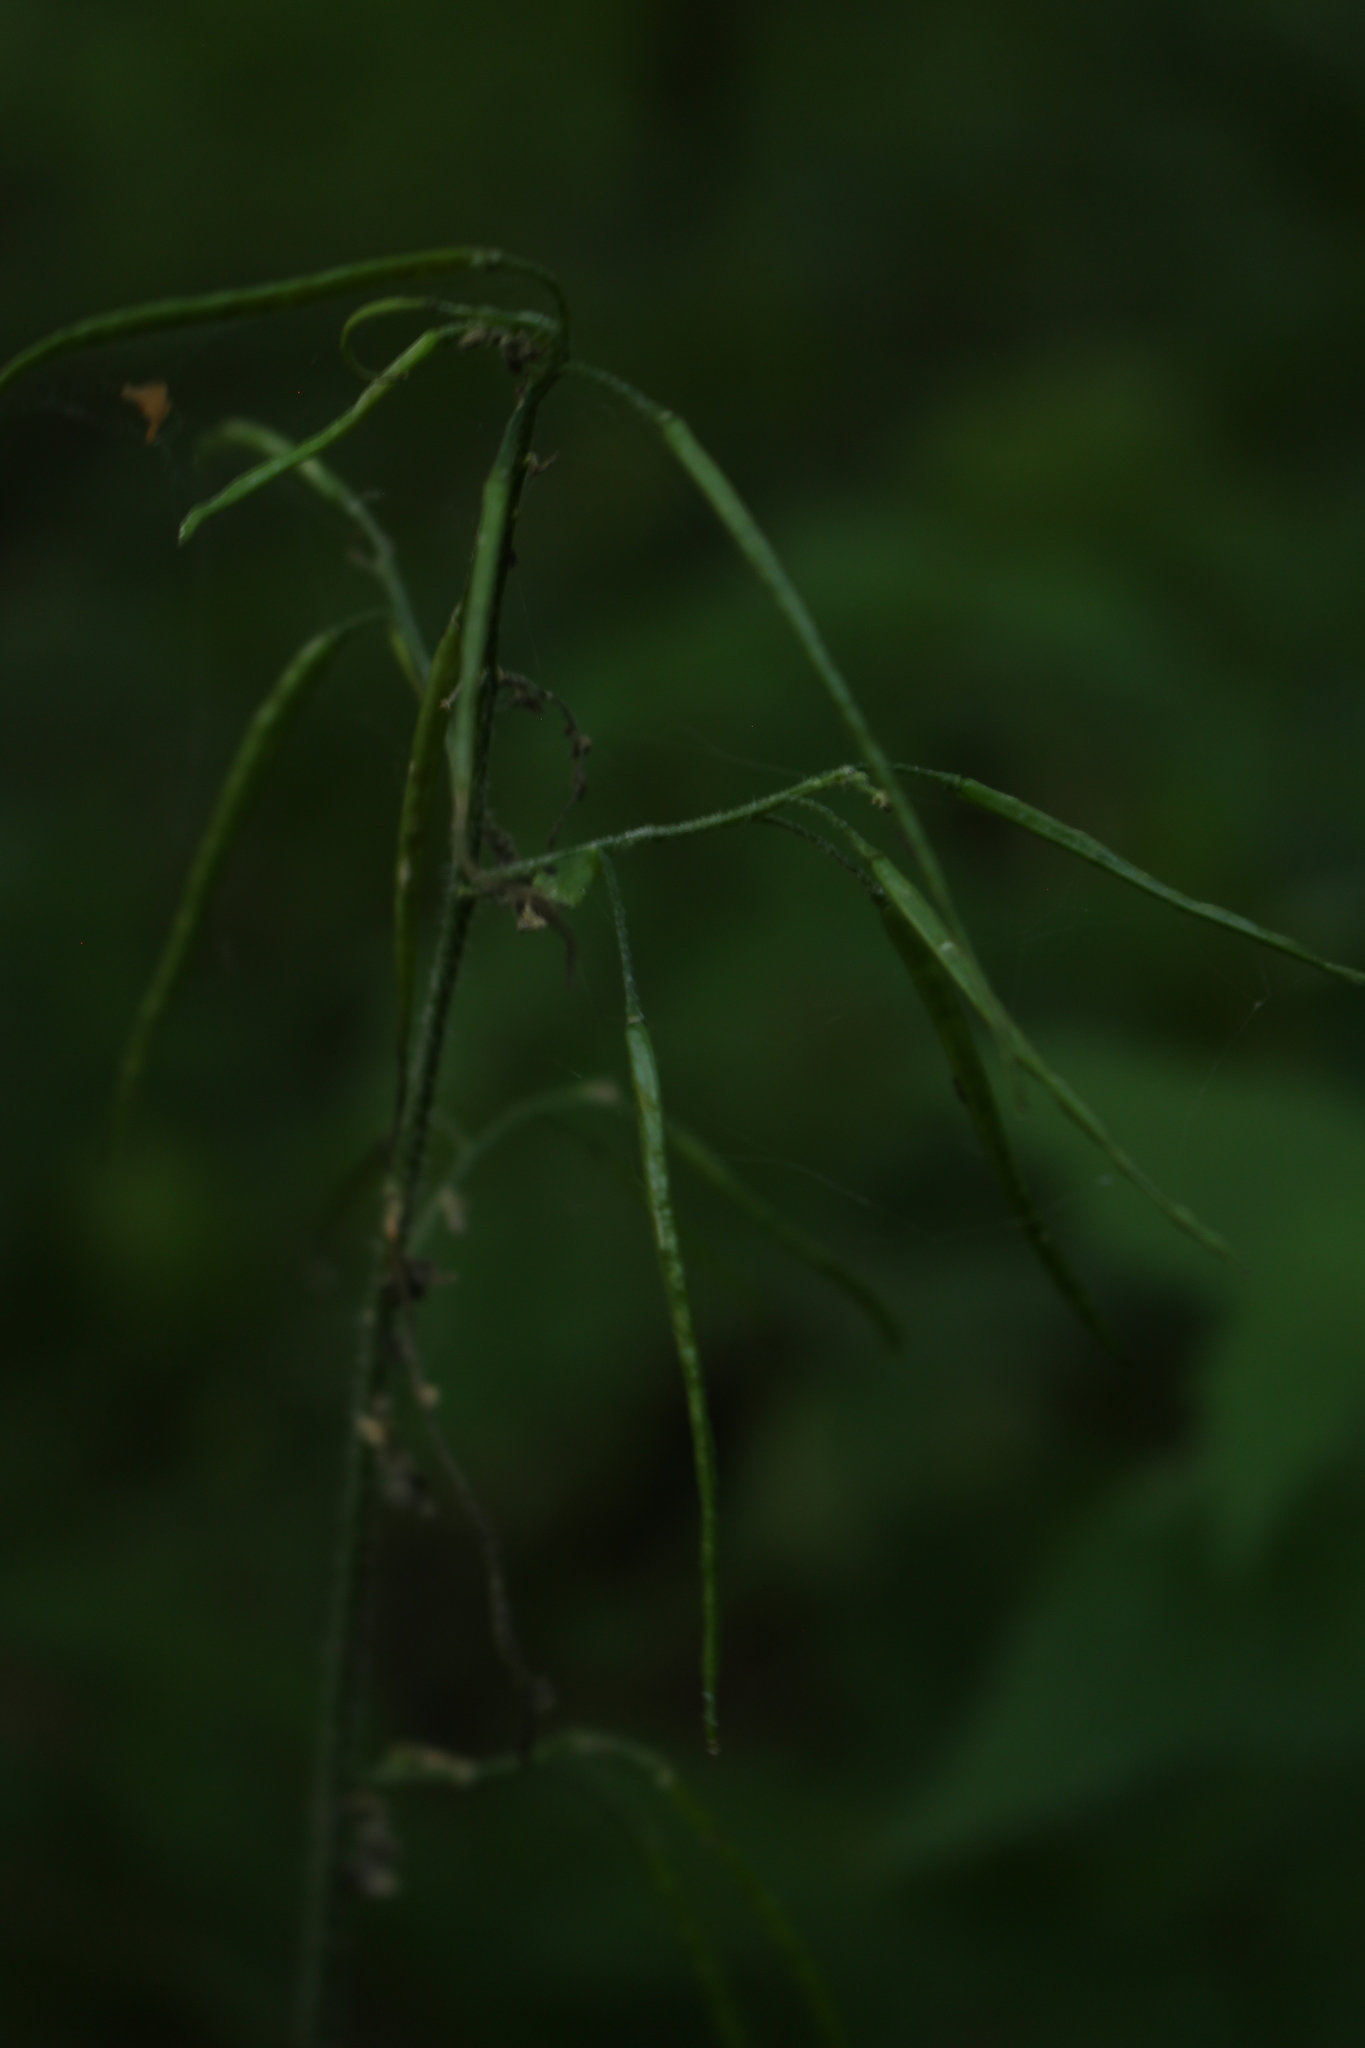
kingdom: Plantae
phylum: Tracheophyta
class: Magnoliopsida
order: Brassicales
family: Brassicaceae
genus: Catolobus
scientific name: Catolobus pendulus
